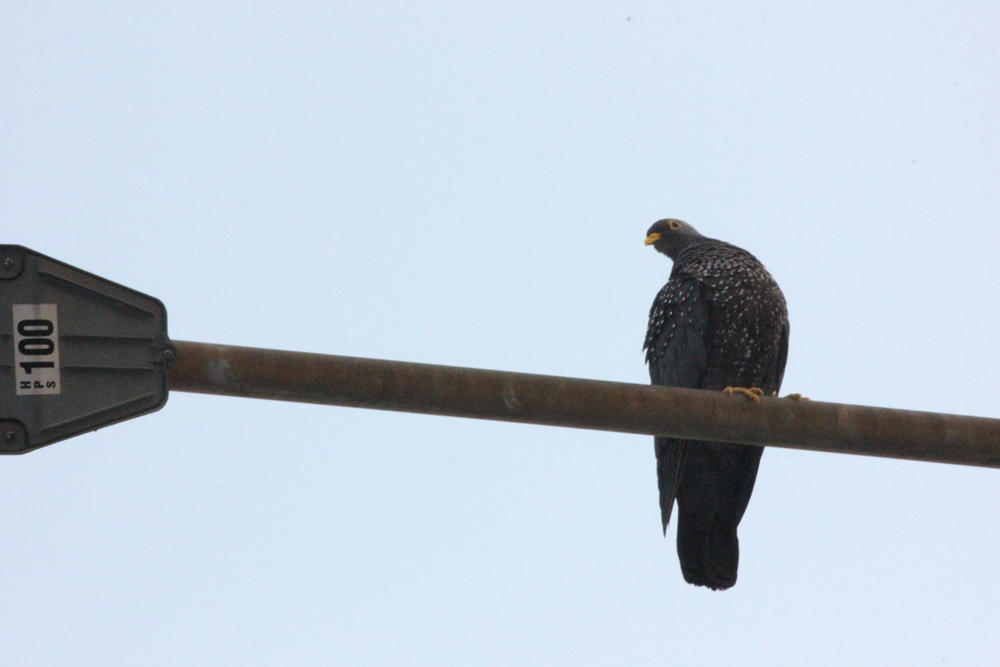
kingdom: Animalia
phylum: Chordata
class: Aves
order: Columbiformes
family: Columbidae
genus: Columba
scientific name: Columba arquatrix
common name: African olive pigeon
